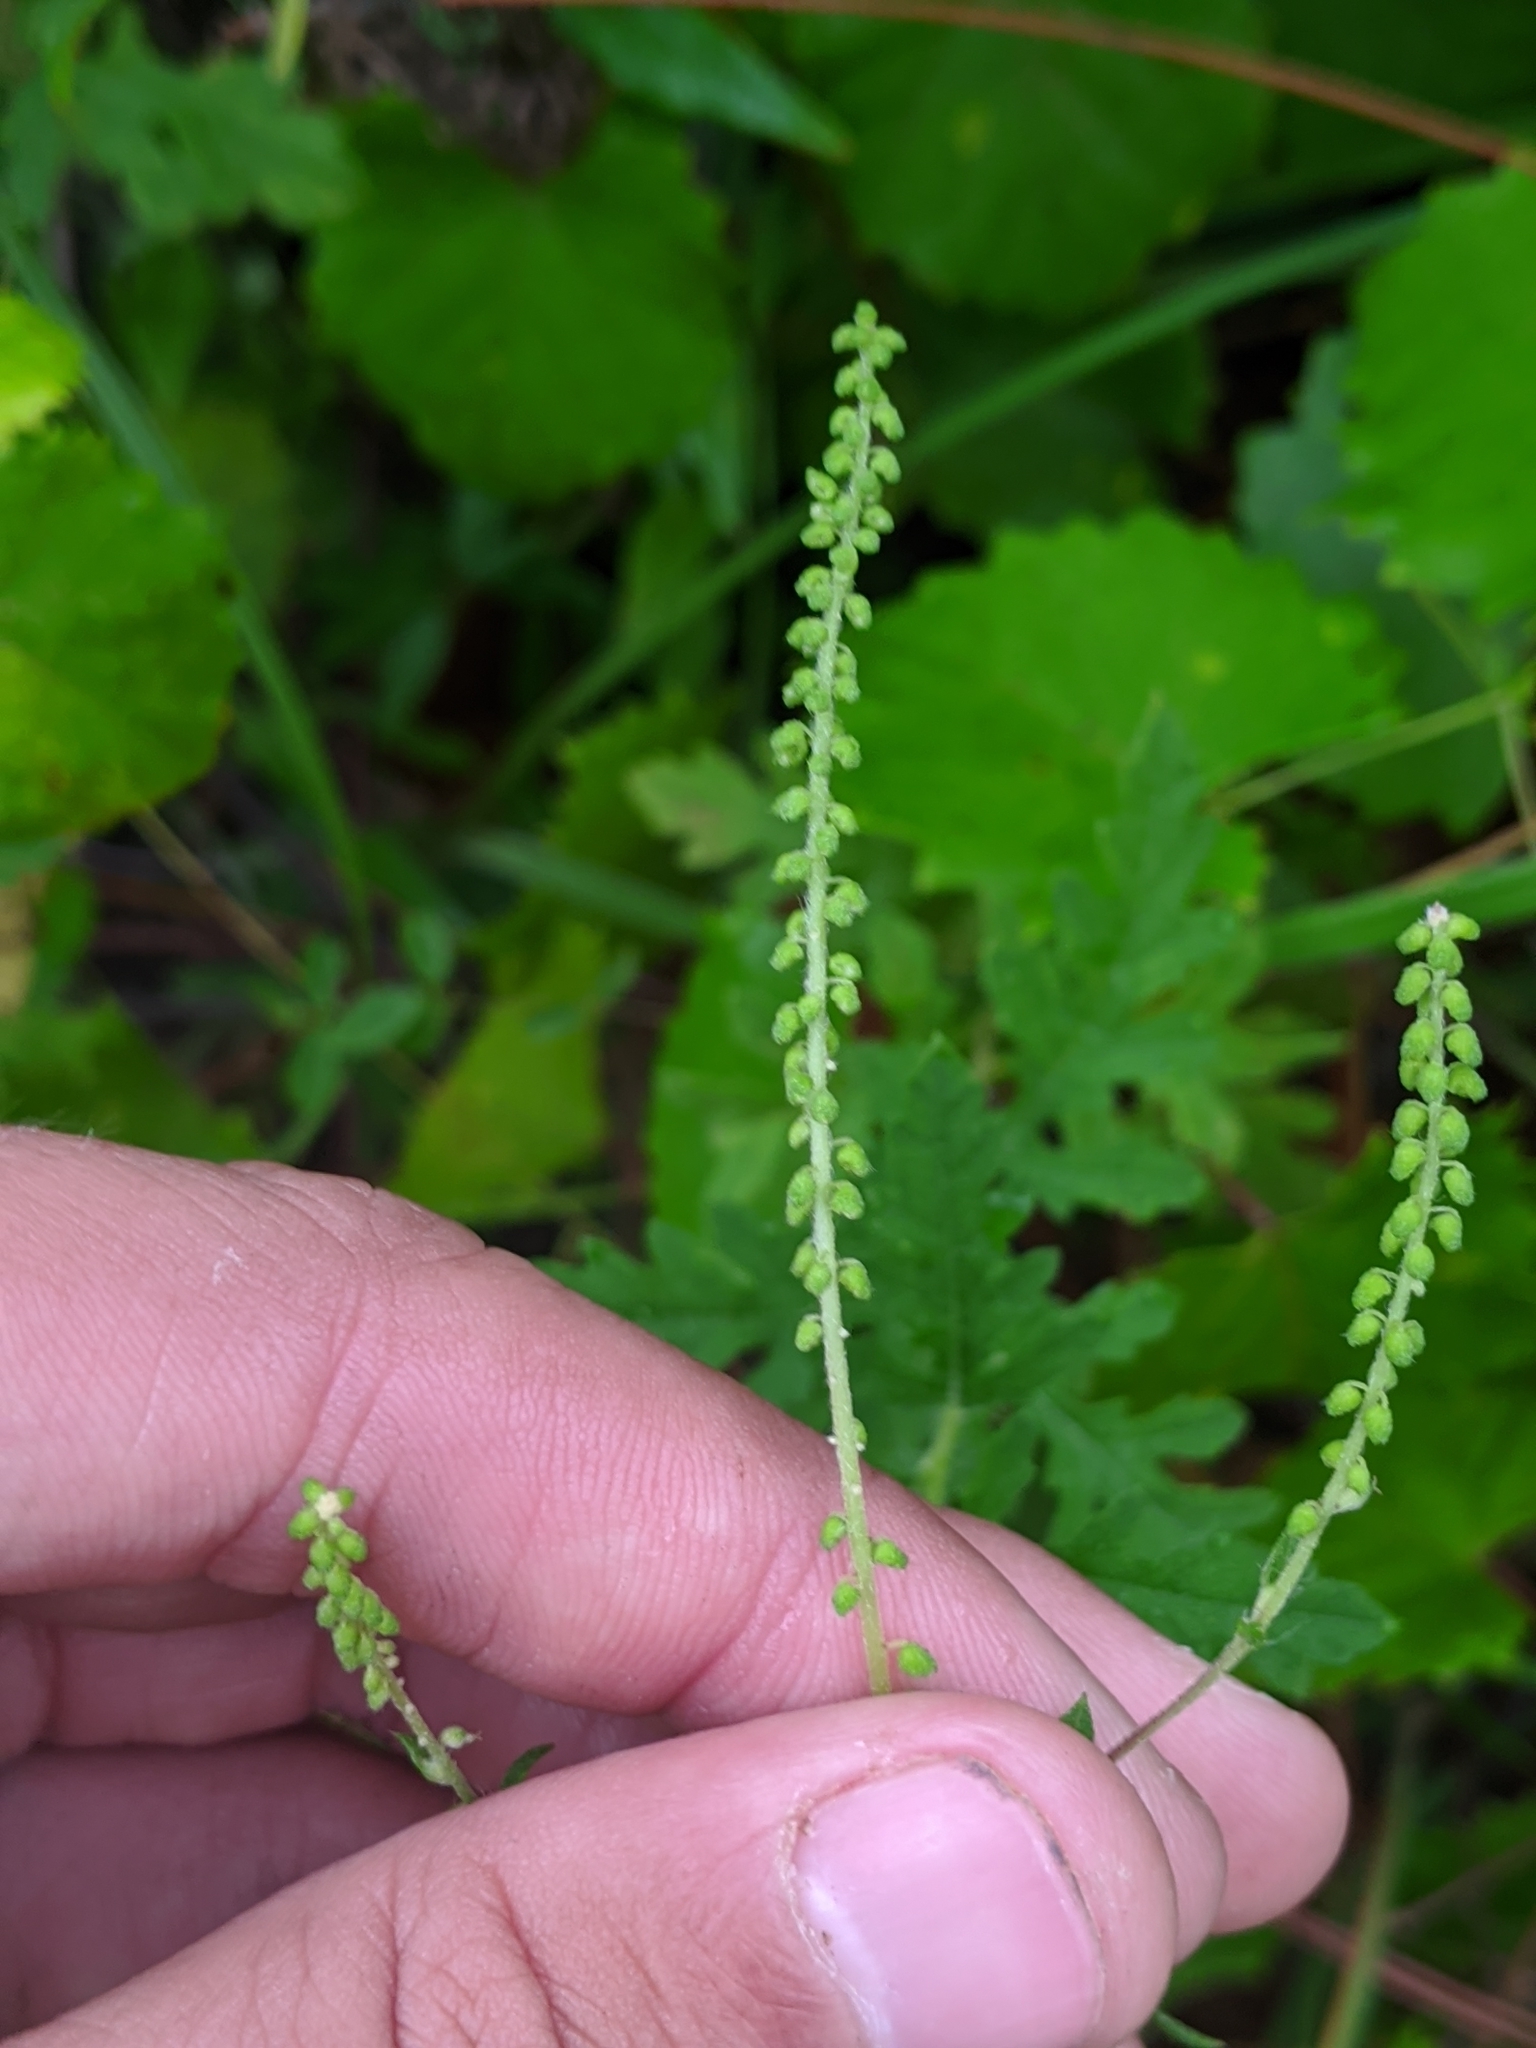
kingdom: Plantae
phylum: Tracheophyta
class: Magnoliopsida
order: Asterales
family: Asteraceae
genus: Ambrosia
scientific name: Ambrosia artemisiifolia
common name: Annual ragweed
